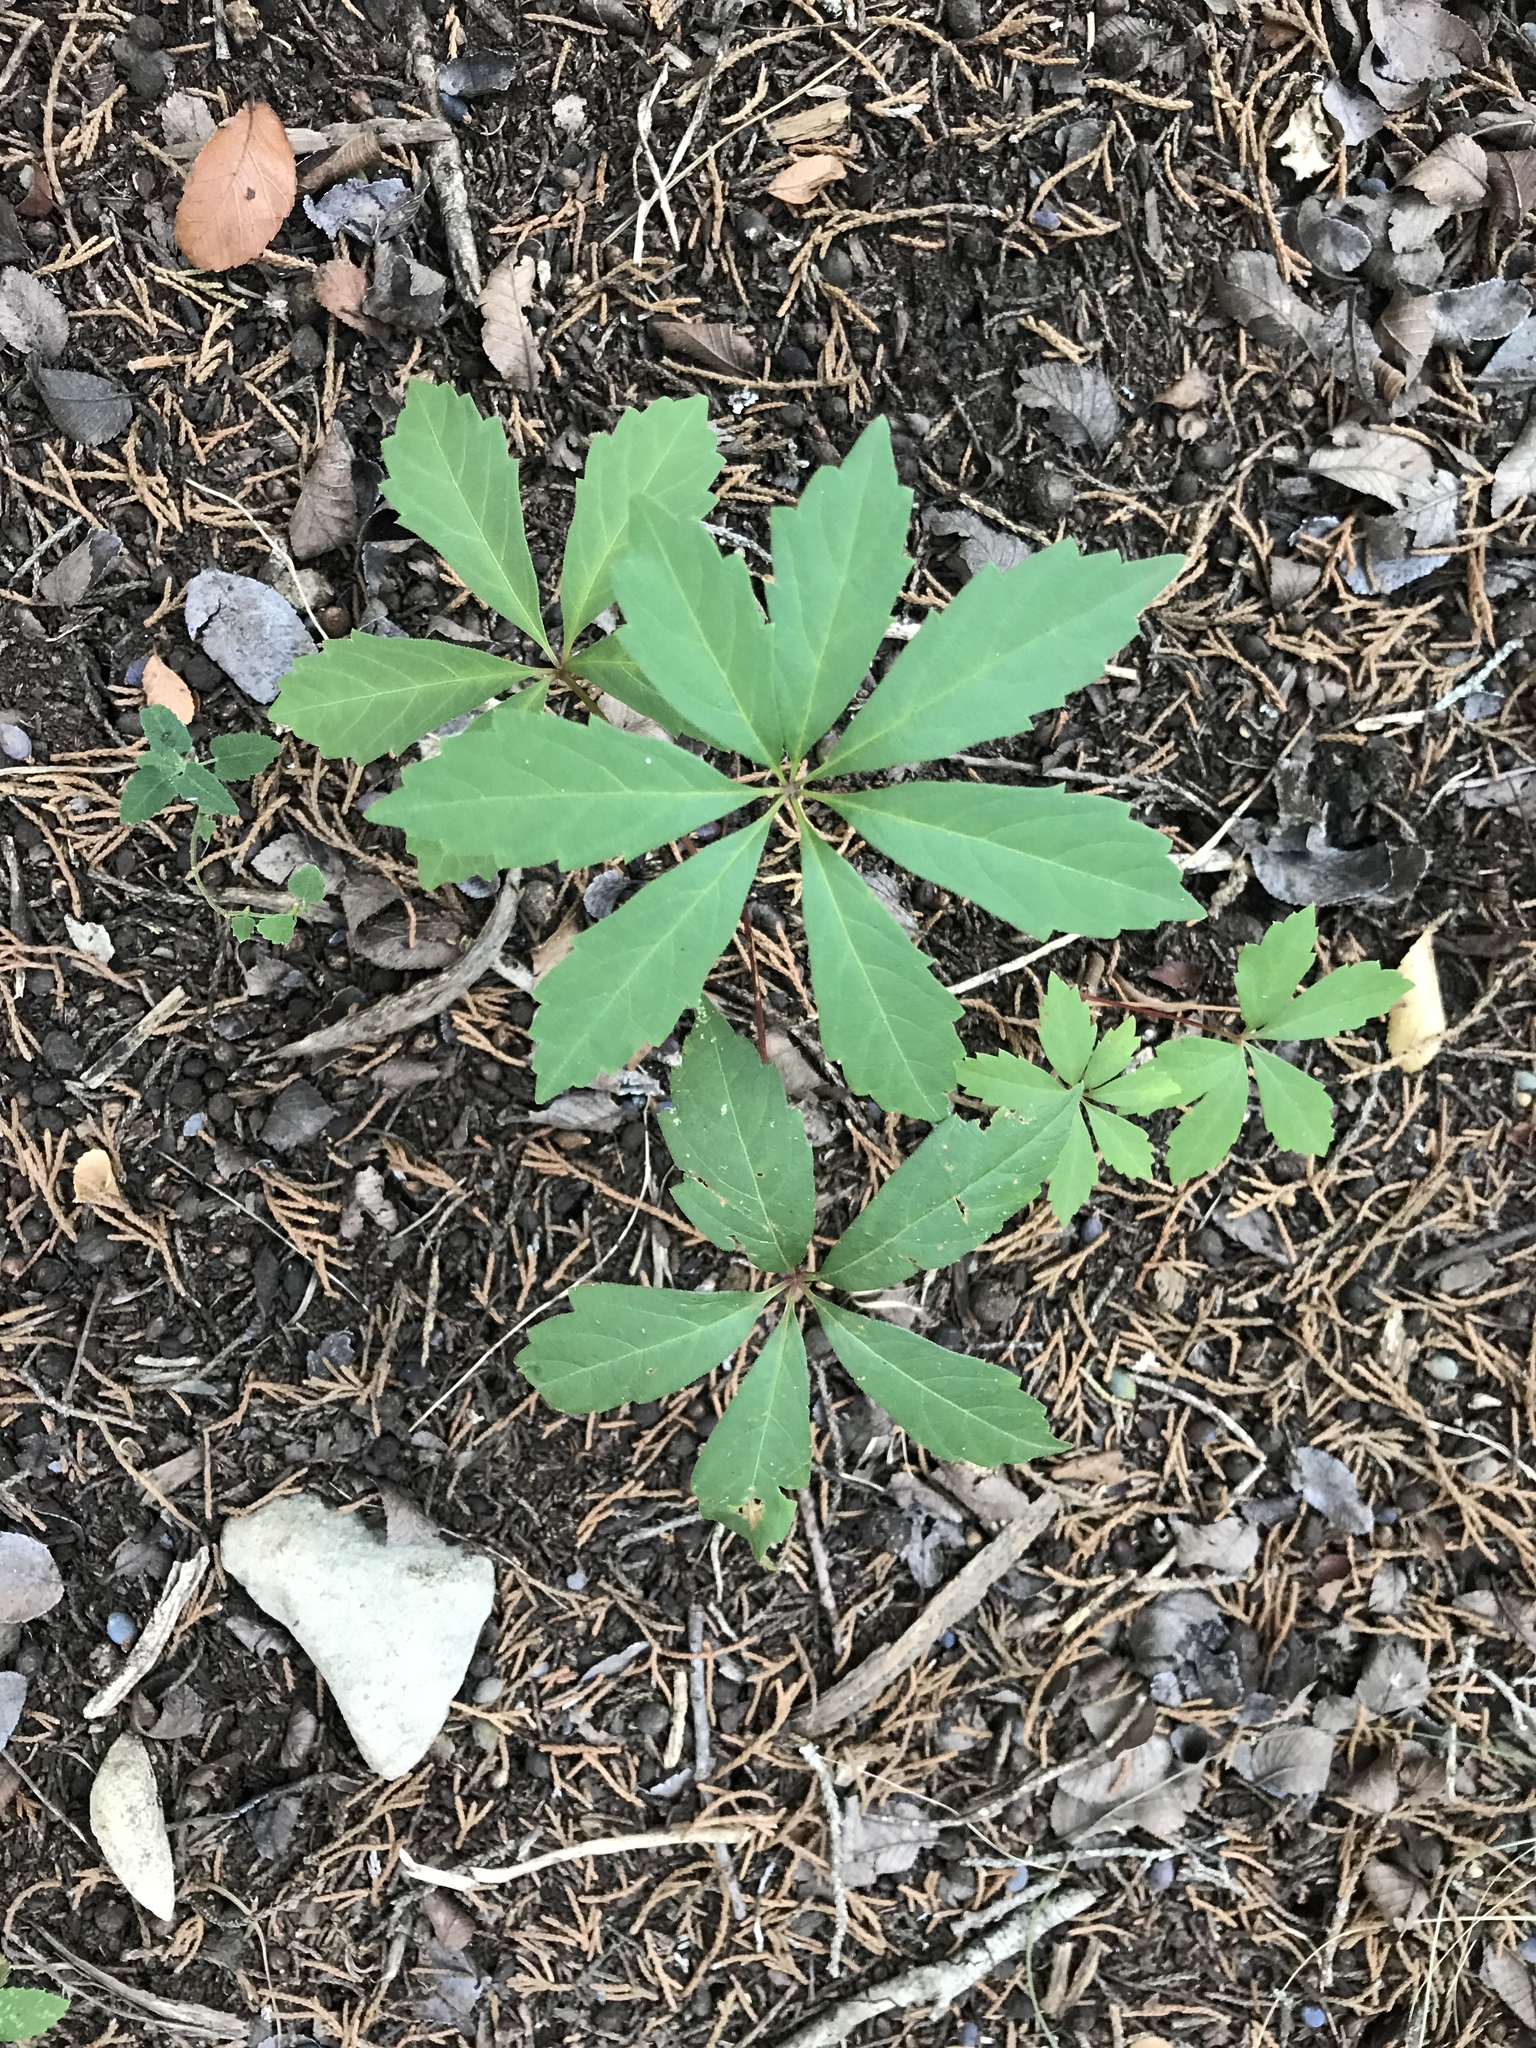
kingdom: Plantae
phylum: Tracheophyta
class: Magnoliopsida
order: Vitales
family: Vitaceae
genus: Parthenocissus
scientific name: Parthenocissus heptaphylla
